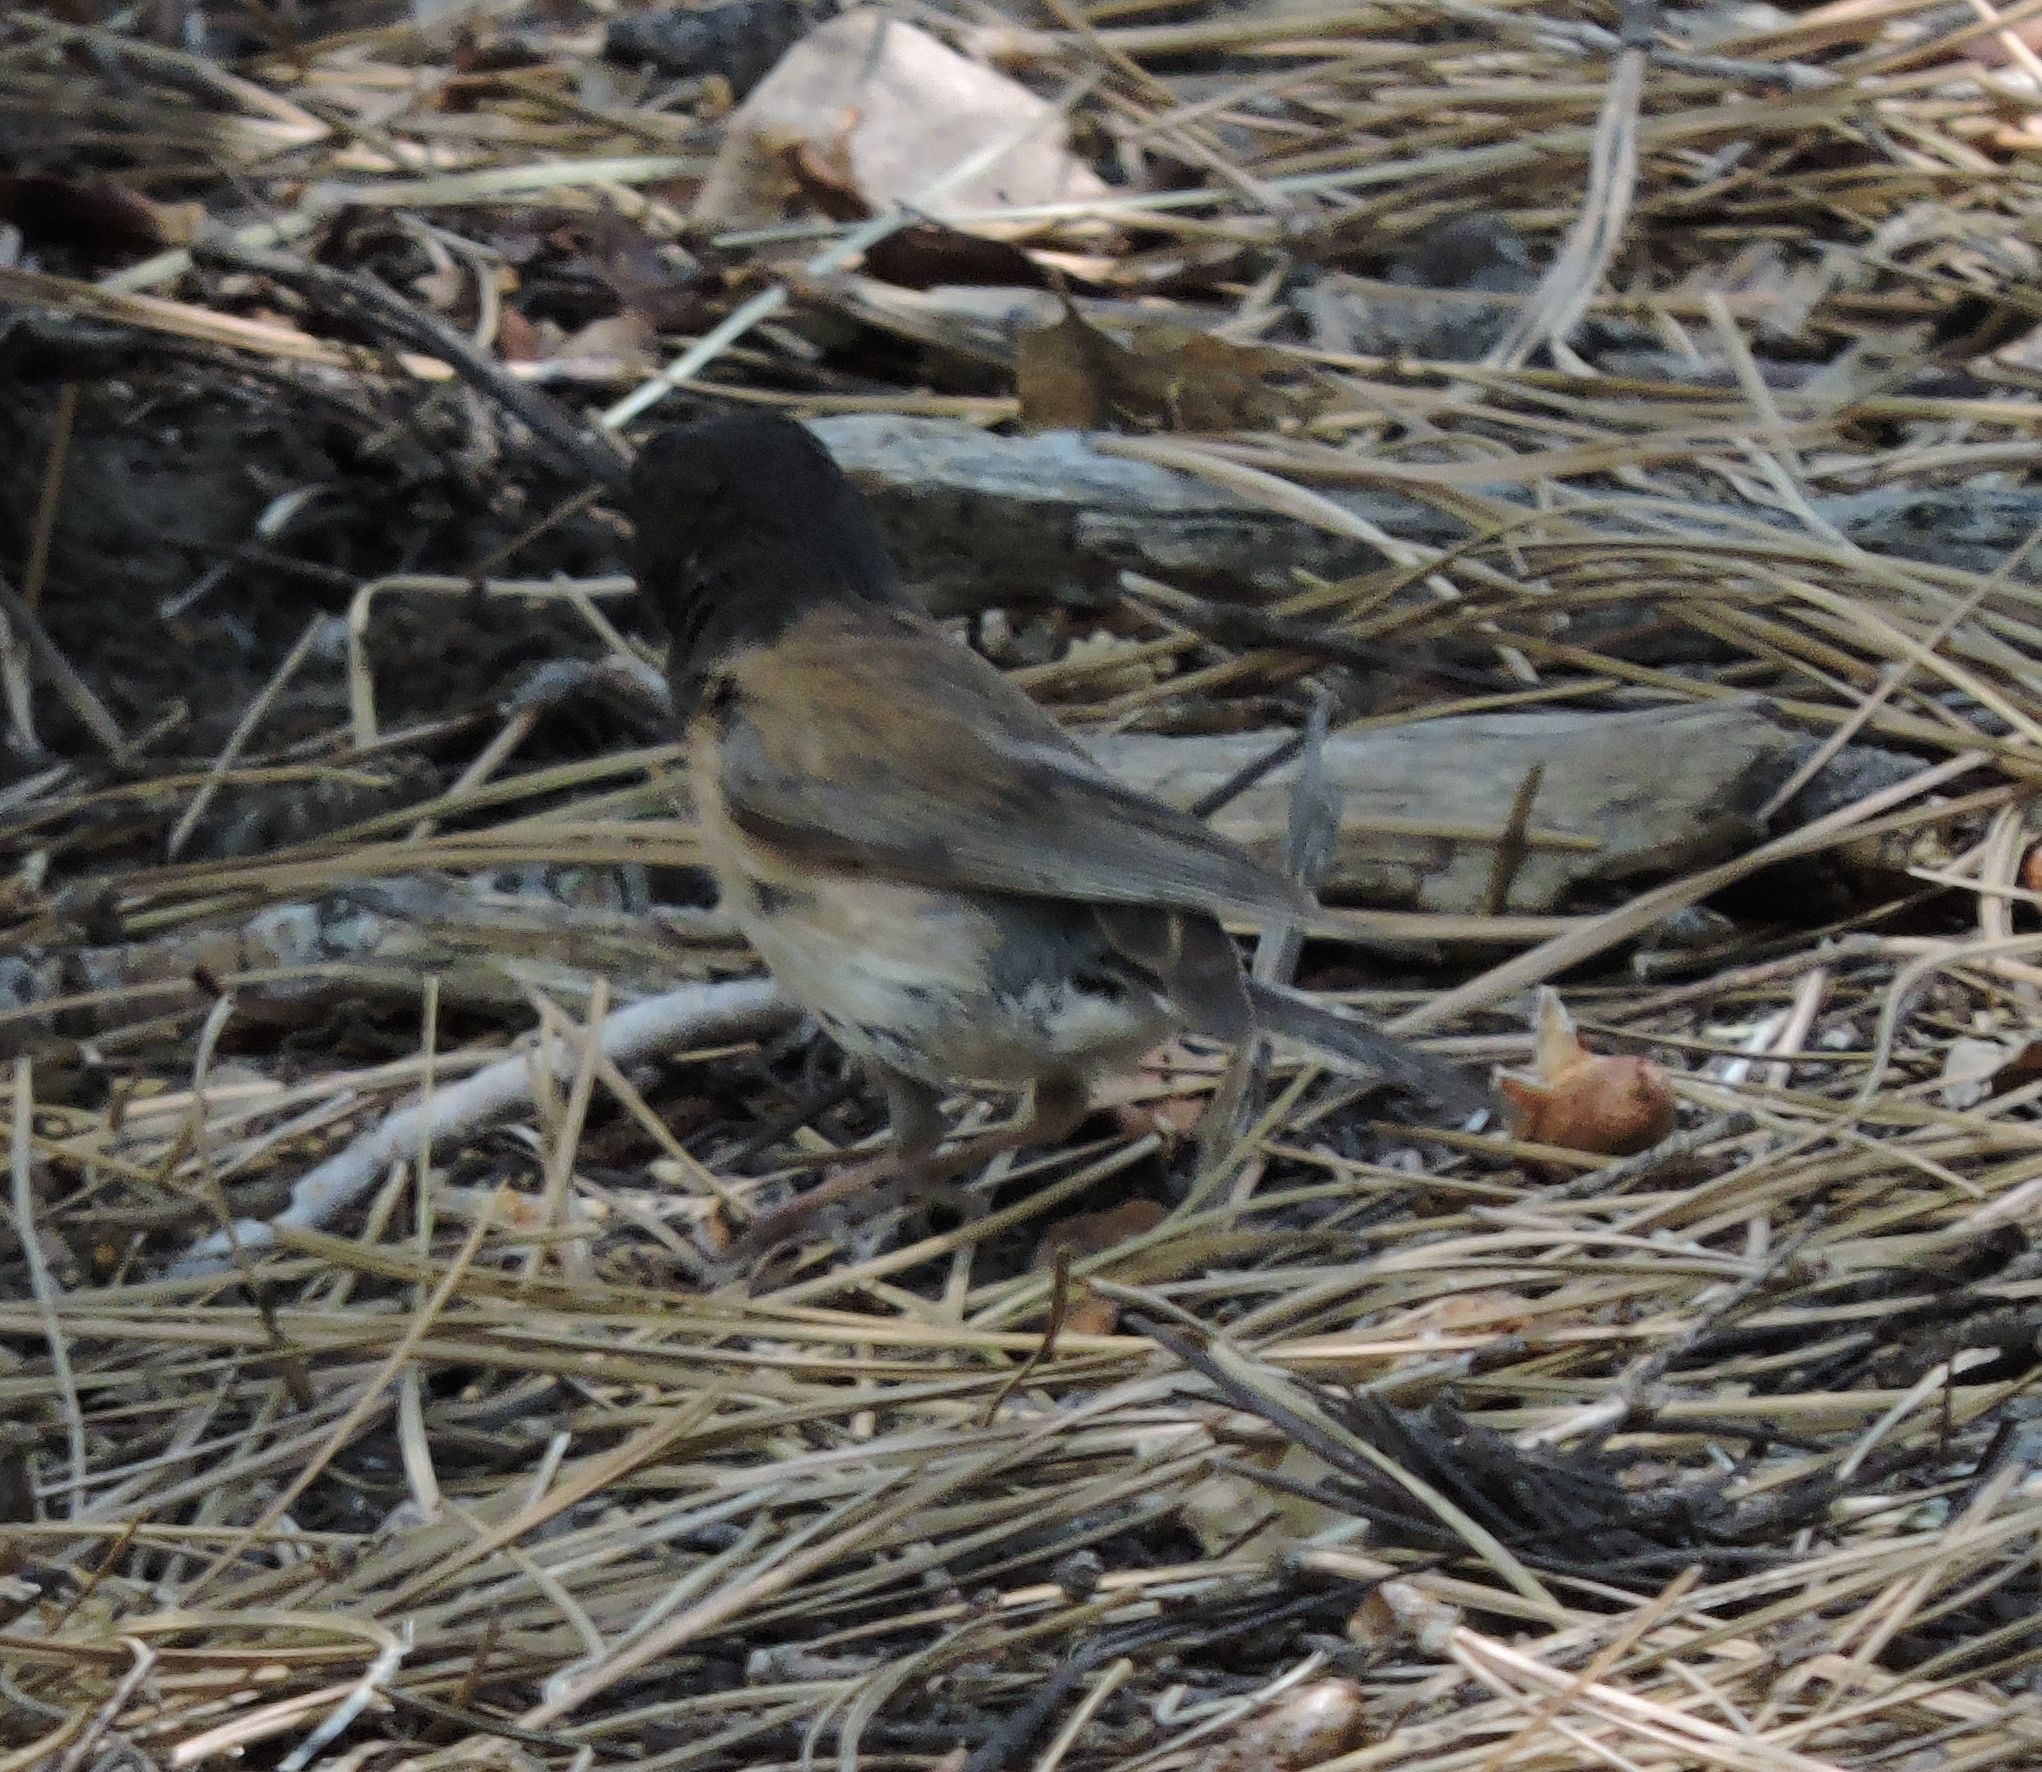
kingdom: Animalia
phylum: Chordata
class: Aves
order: Passeriformes
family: Passerellidae
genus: Junco
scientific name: Junco hyemalis
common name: Dark-eyed junco
